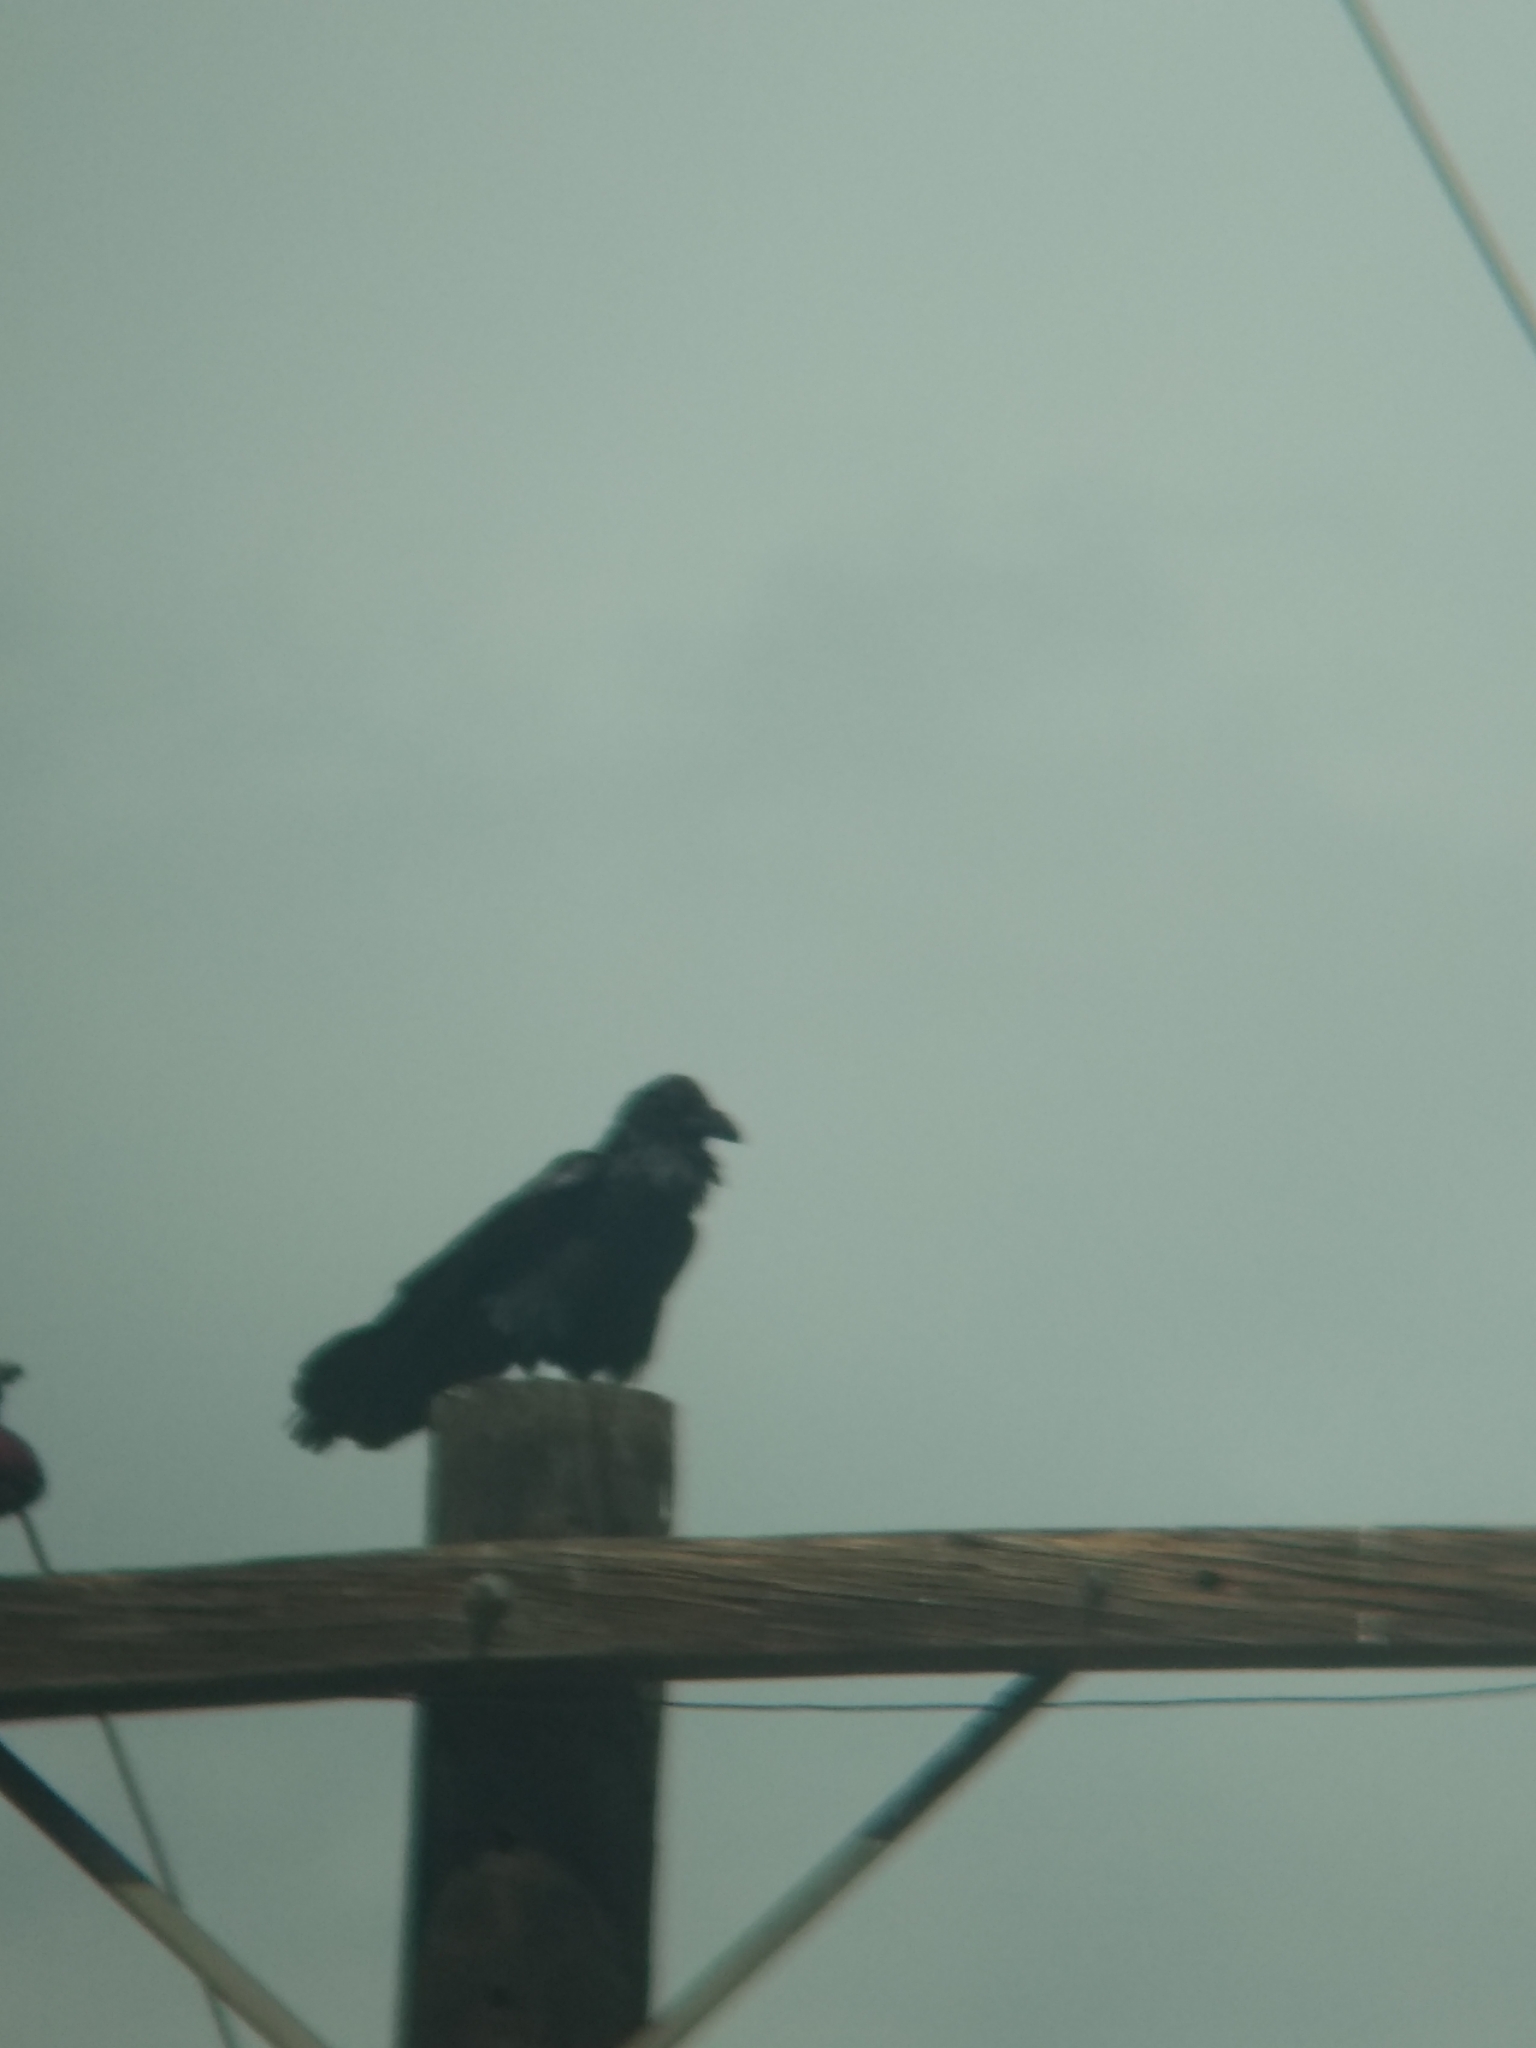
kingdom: Animalia
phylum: Chordata
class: Aves
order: Passeriformes
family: Corvidae
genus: Corvus
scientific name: Corvus corax
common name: Common raven
